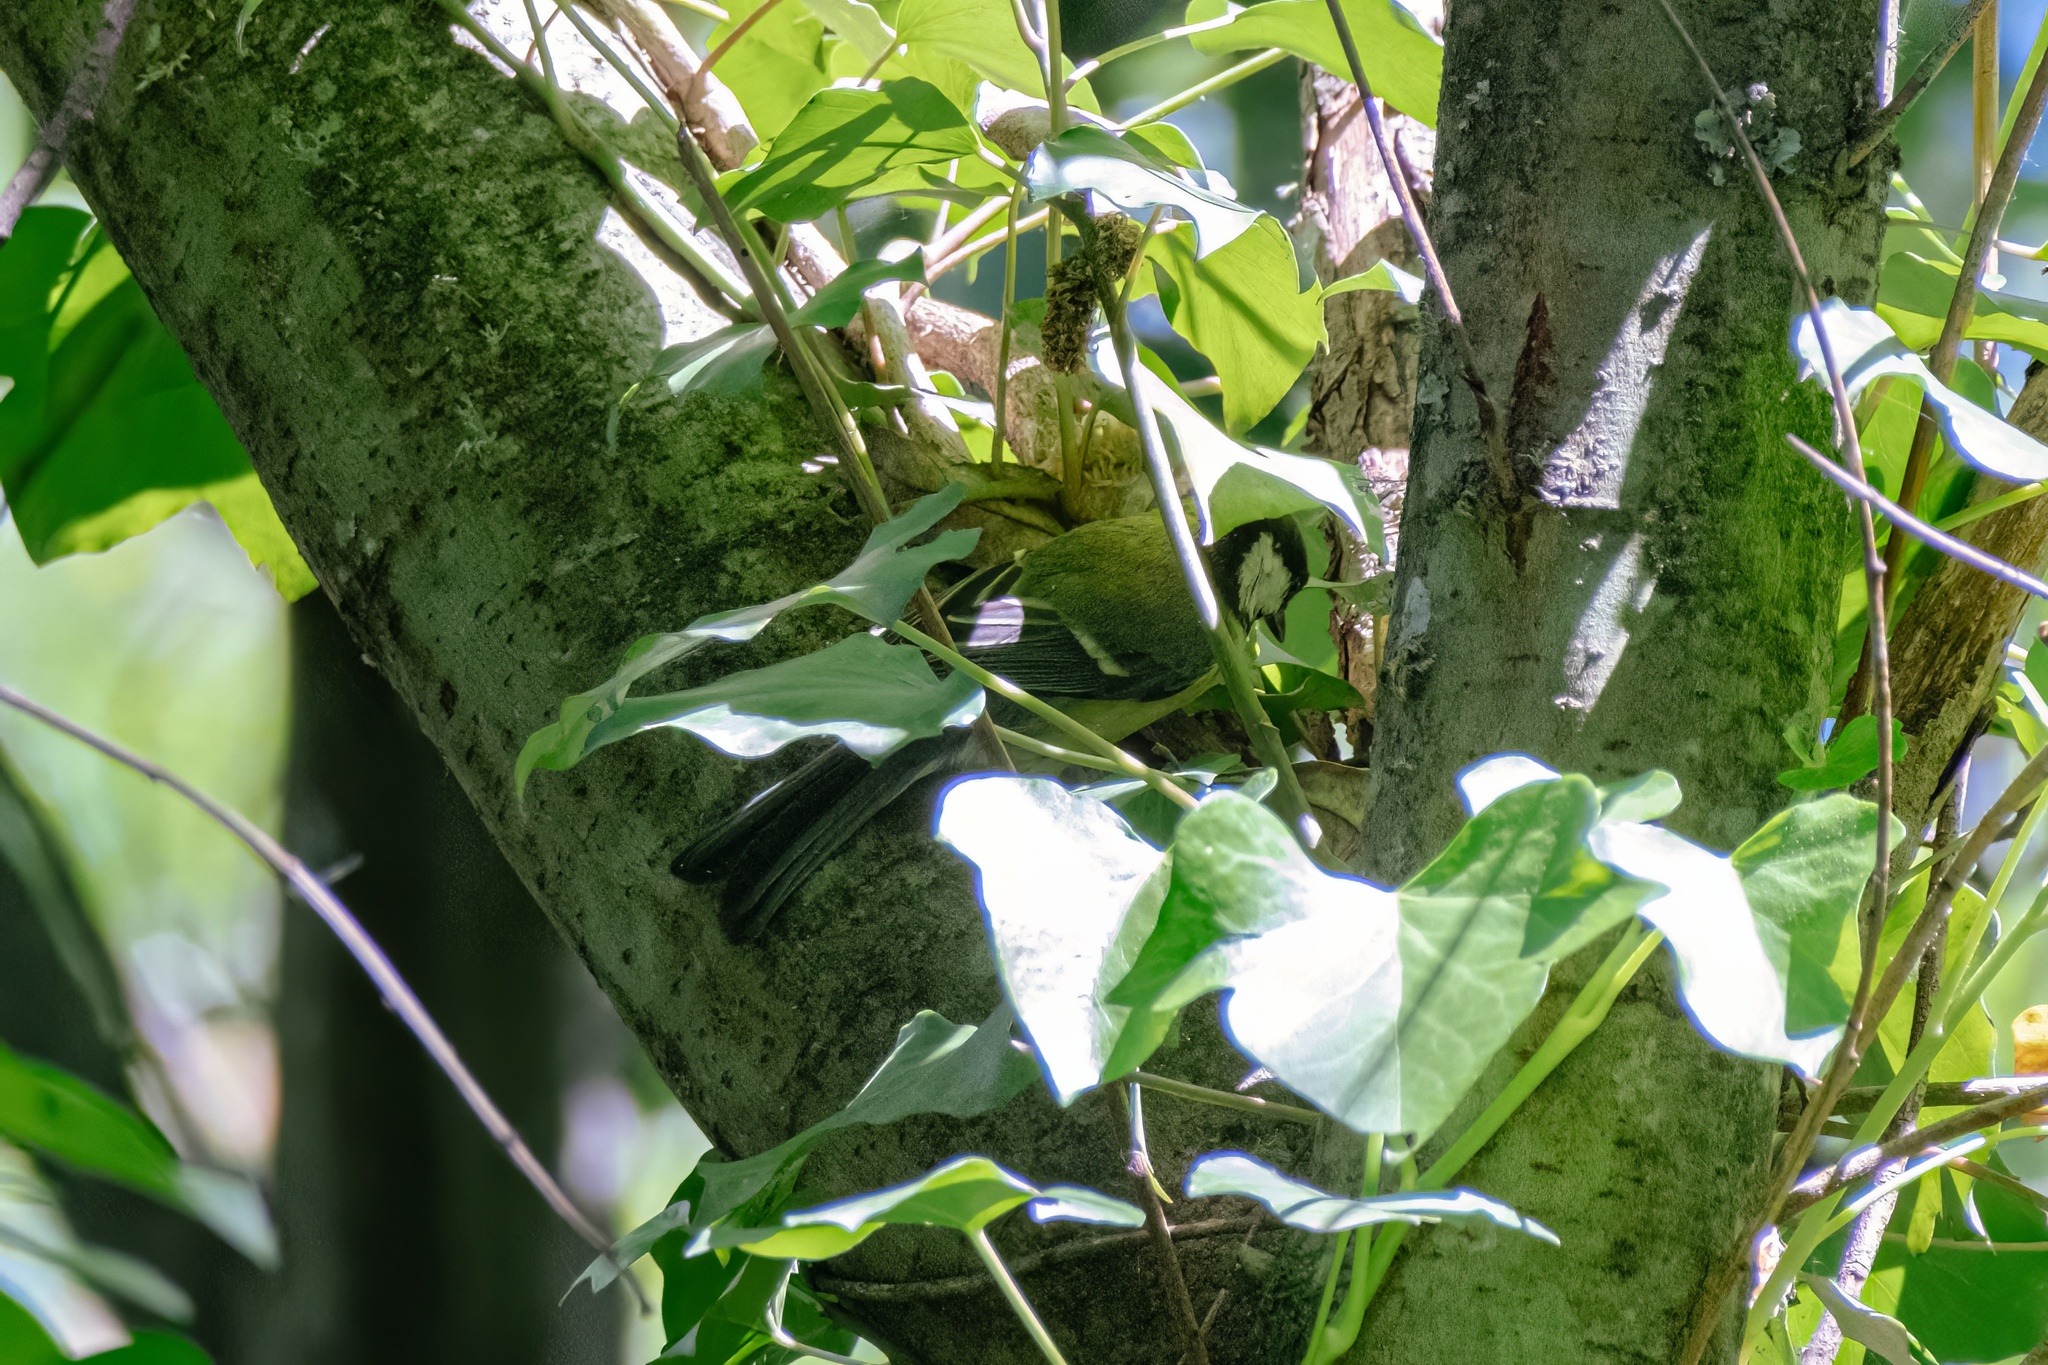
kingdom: Animalia
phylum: Chordata
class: Aves
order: Passeriformes
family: Paridae
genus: Parus
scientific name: Parus major
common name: Great tit
